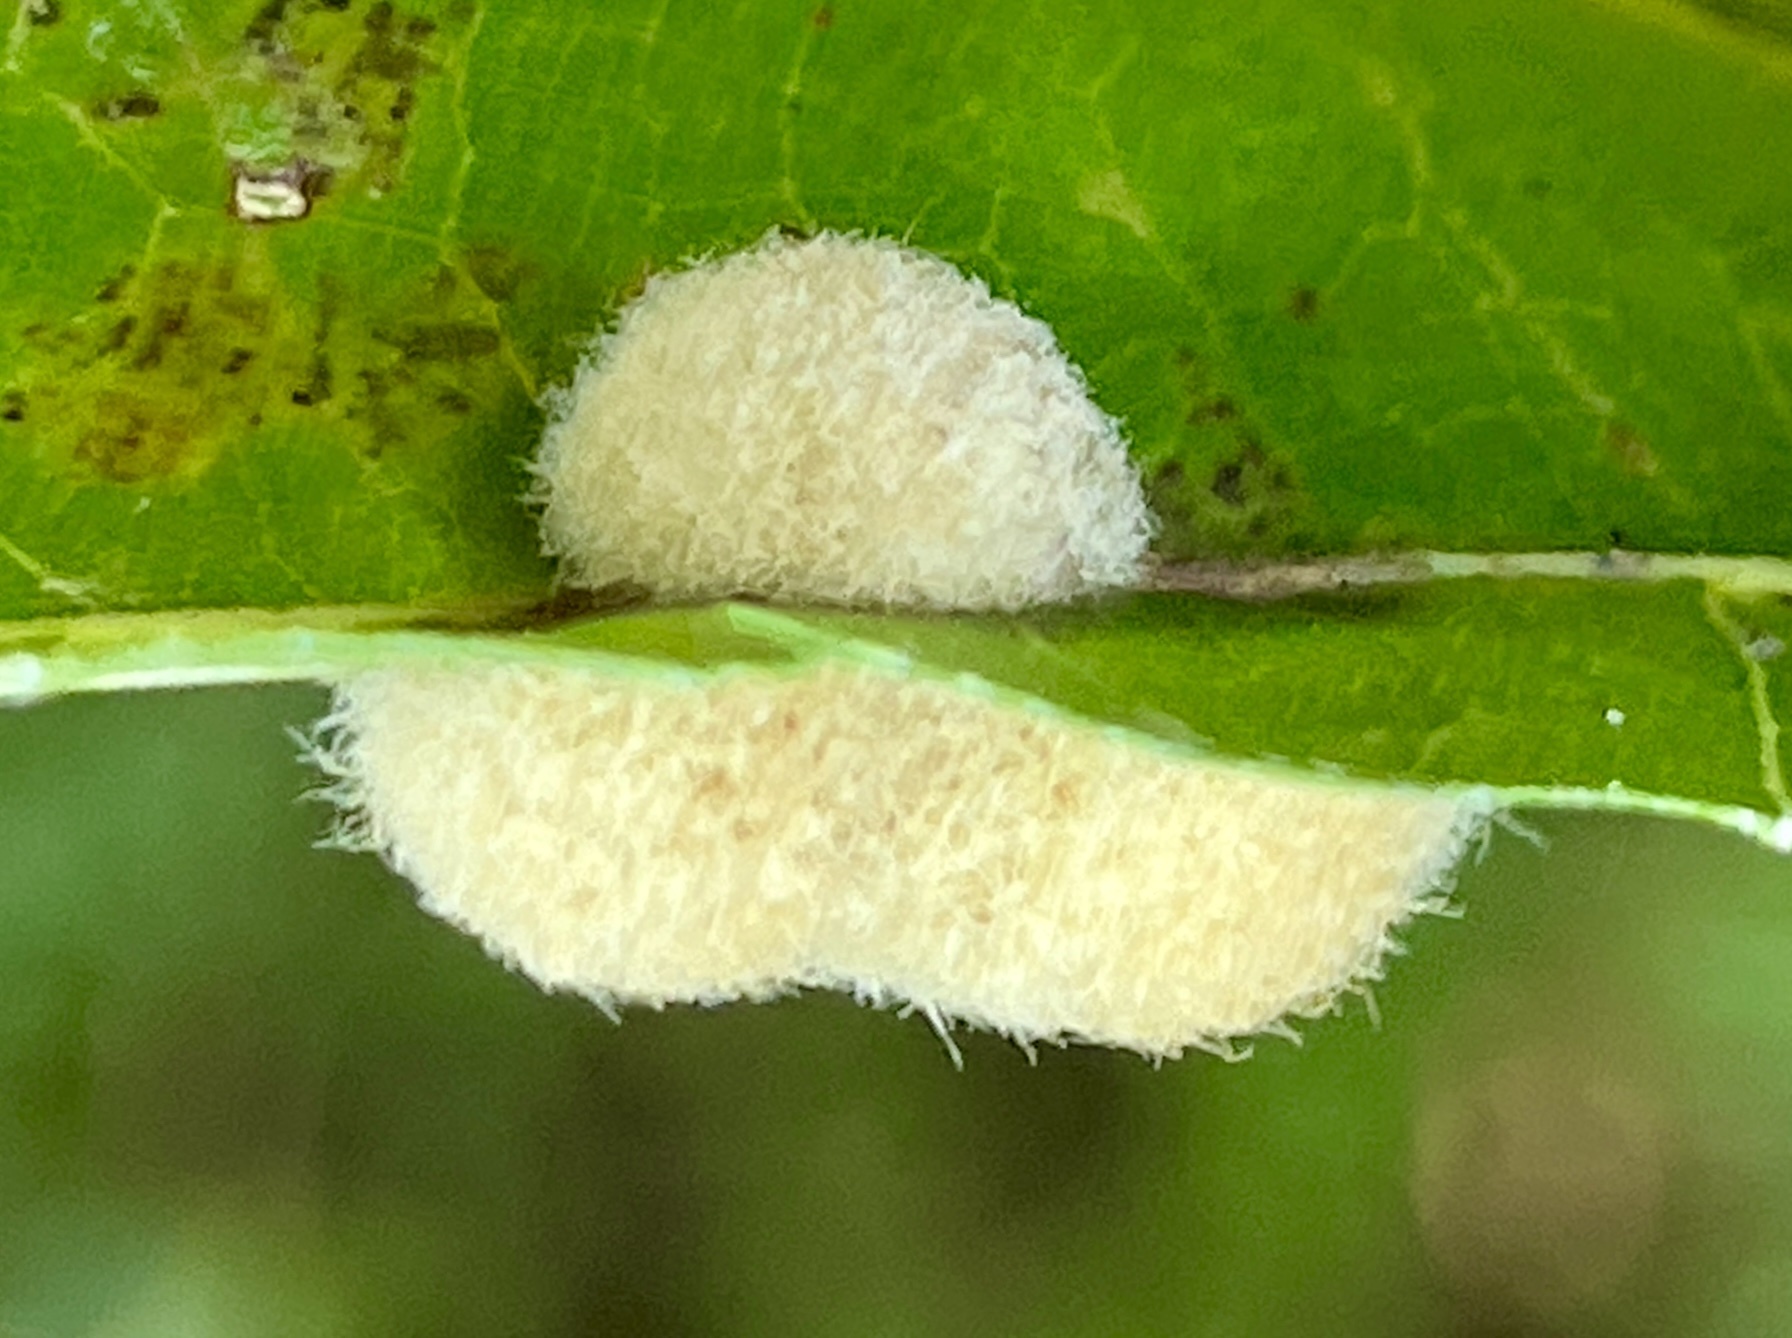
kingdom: Animalia
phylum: Arthropoda
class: Insecta
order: Hymenoptera
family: Cynipidae
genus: Callirhytis
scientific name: Callirhytis
